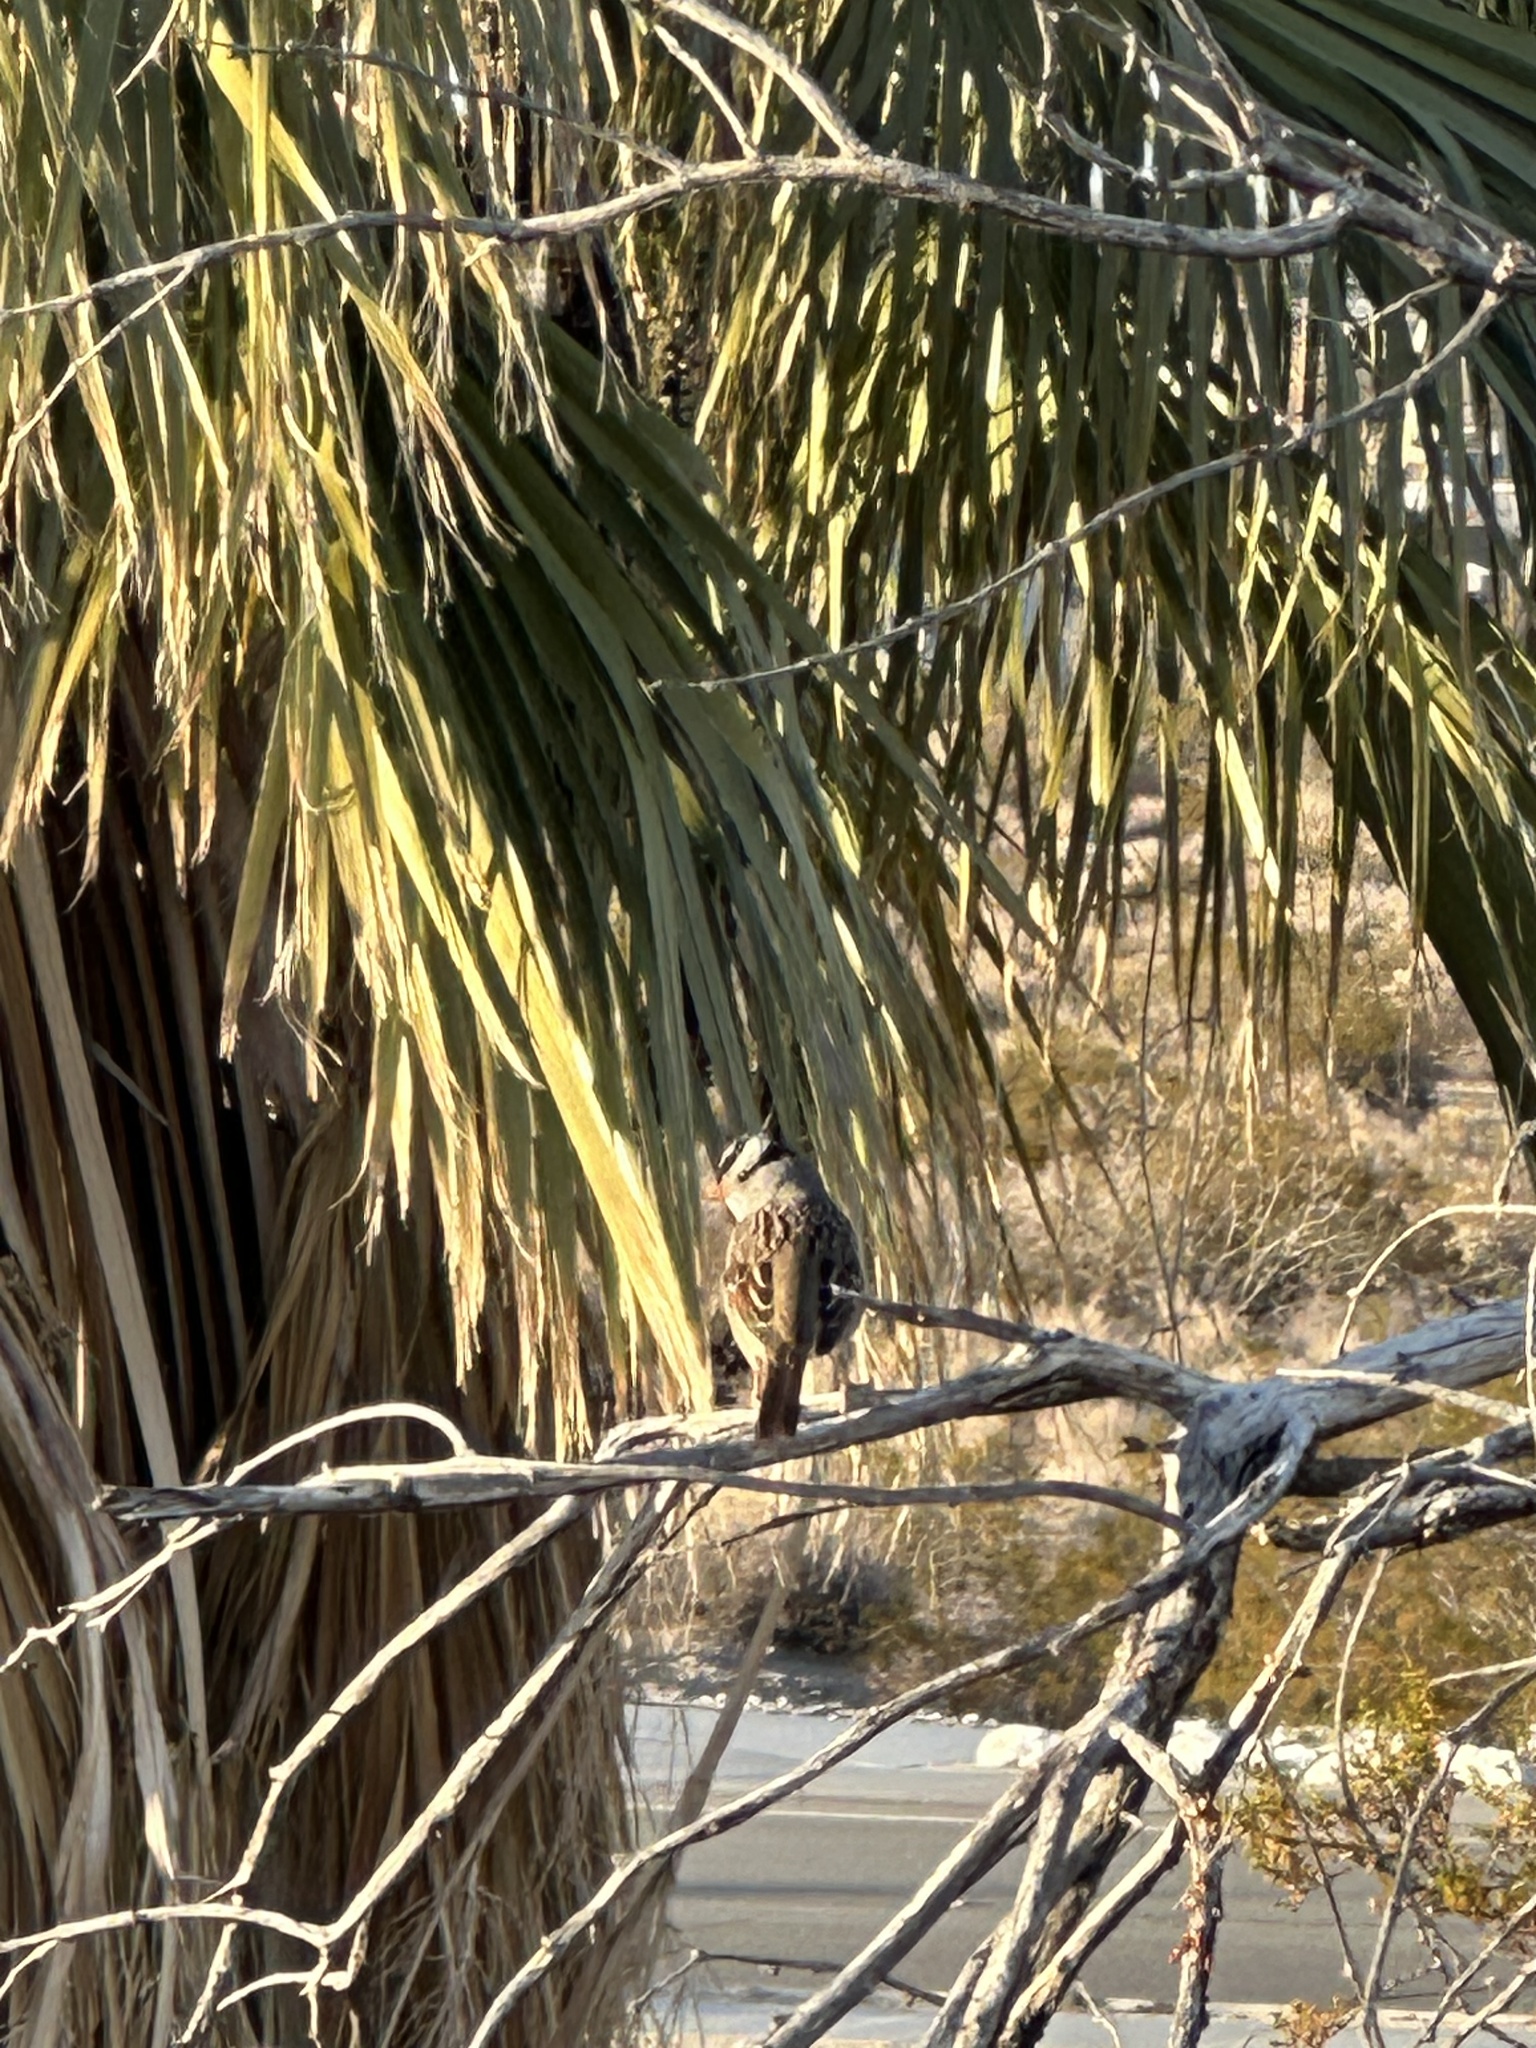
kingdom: Animalia
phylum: Chordata
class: Aves
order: Passeriformes
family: Passerellidae
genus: Zonotrichia
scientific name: Zonotrichia leucophrys
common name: White-crowned sparrow
